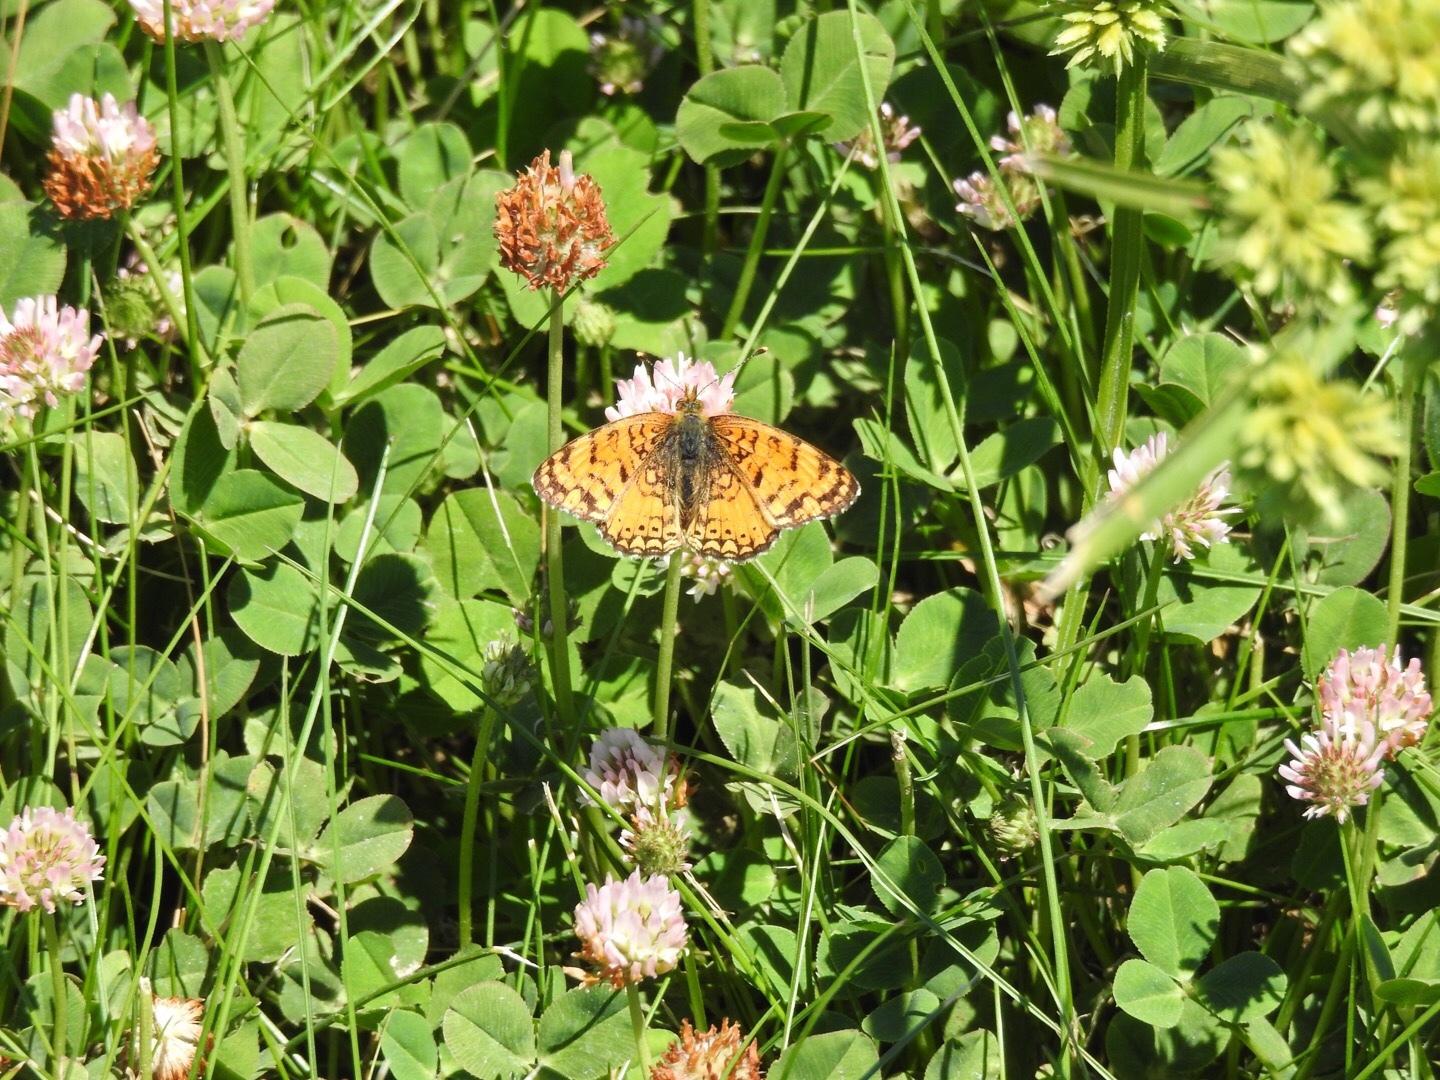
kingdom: Animalia
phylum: Arthropoda
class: Insecta
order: Lepidoptera
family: Nymphalidae
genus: Eresia
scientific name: Eresia aveyrona
